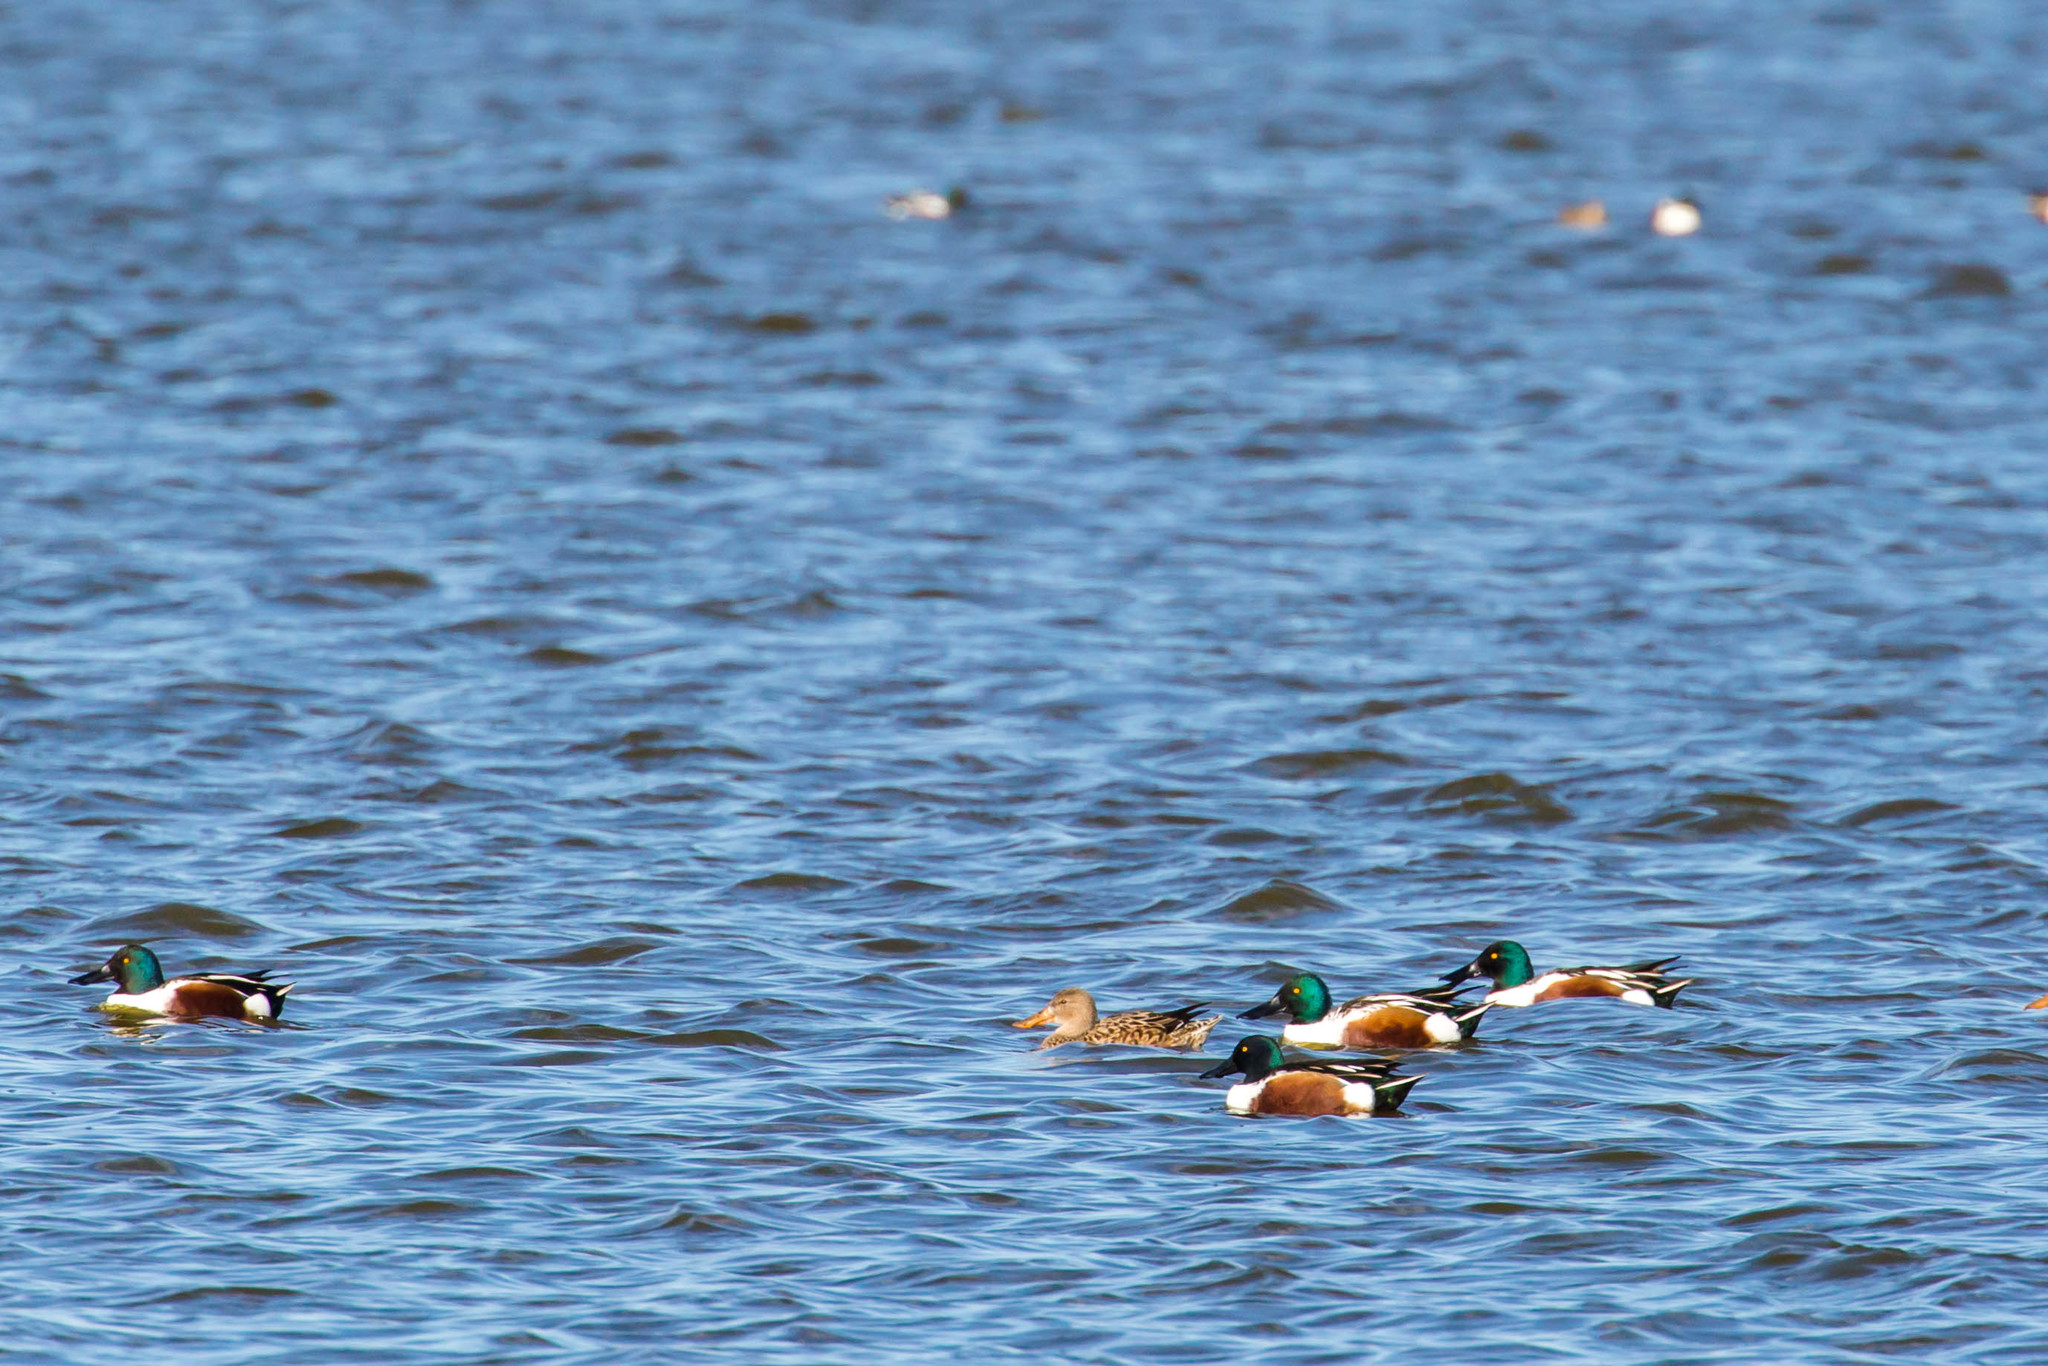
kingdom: Animalia
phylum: Chordata
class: Aves
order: Anseriformes
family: Anatidae
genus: Spatula
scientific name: Spatula clypeata
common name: Northern shoveler
